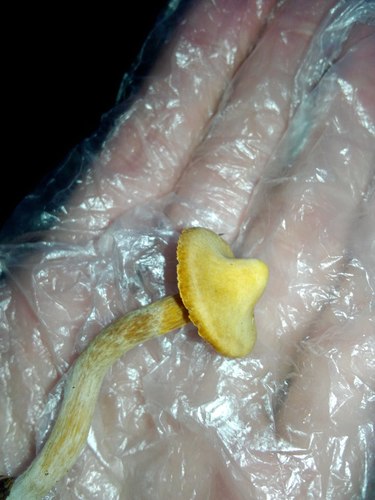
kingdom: Fungi
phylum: Basidiomycota
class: Agaricomycetes
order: Agaricales
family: Cortinariaceae
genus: Cortinarius
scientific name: Cortinarius
